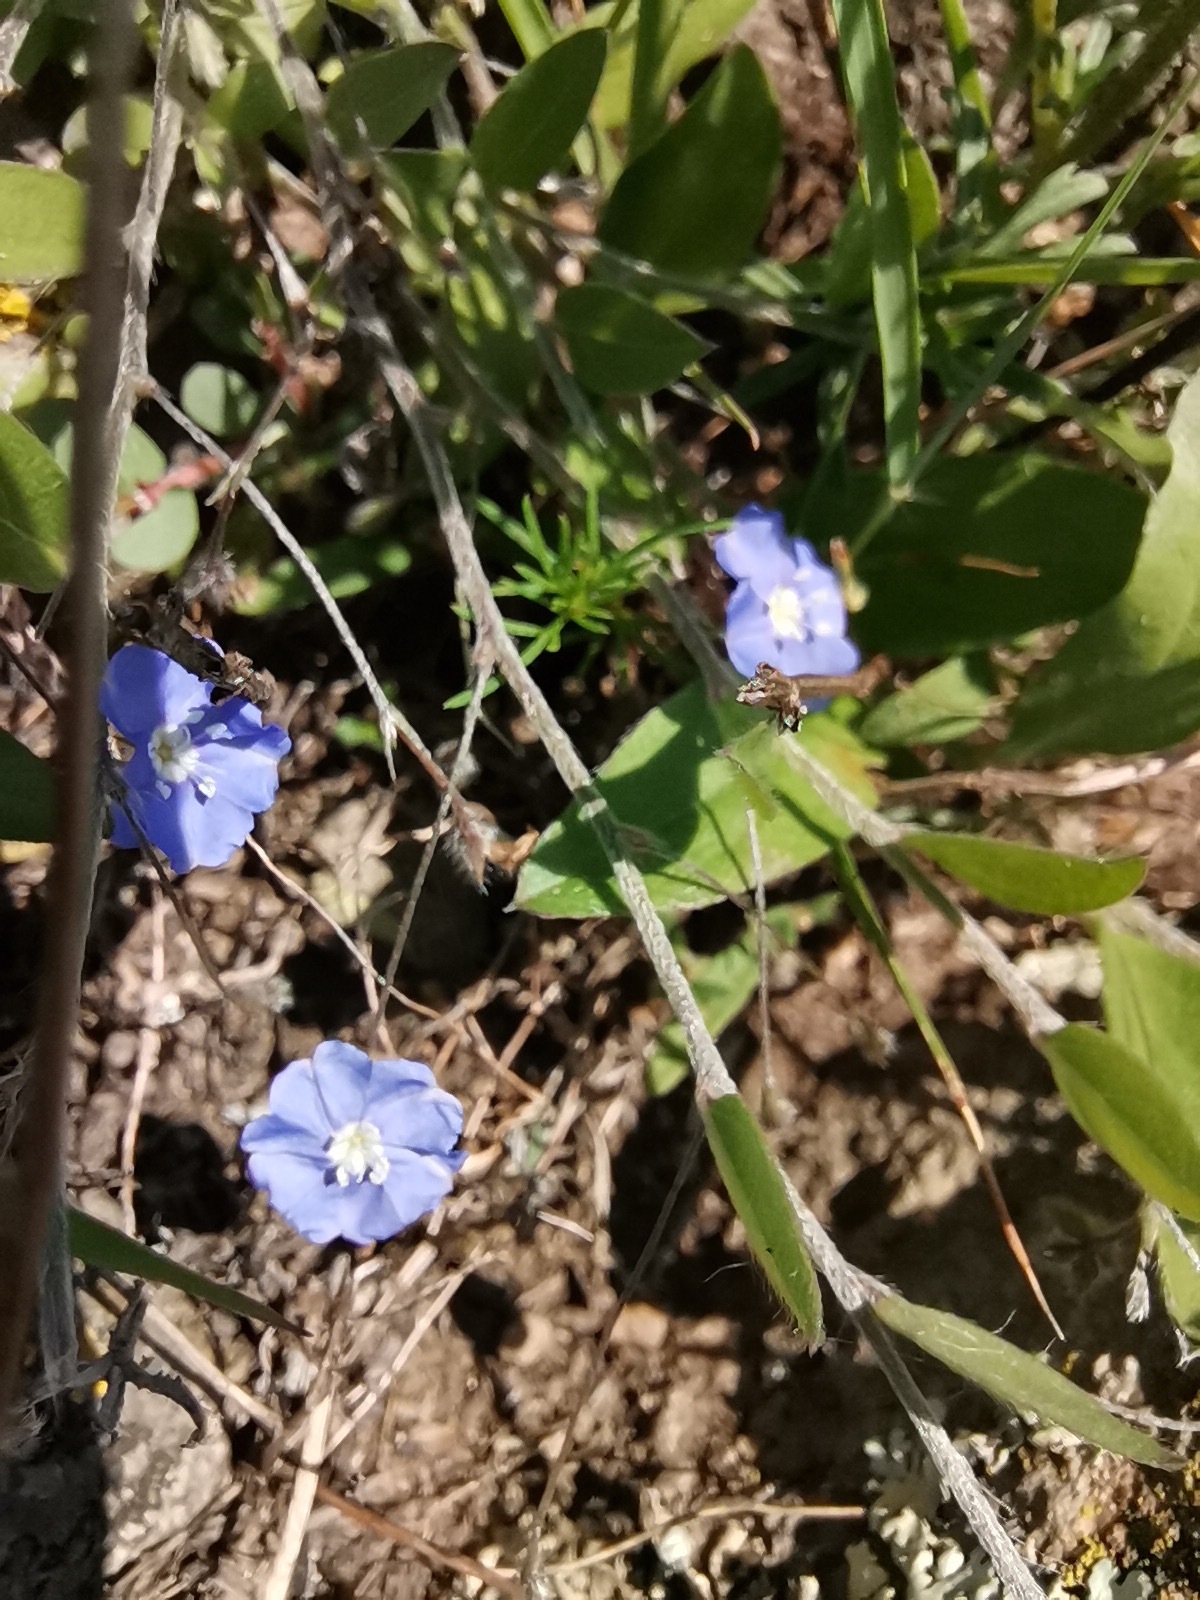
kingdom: Plantae
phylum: Tracheophyta
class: Magnoliopsida
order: Solanales
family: Convolvulaceae
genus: Evolvulus
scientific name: Evolvulus alsinoides
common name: Slender dwarf morning-glory
